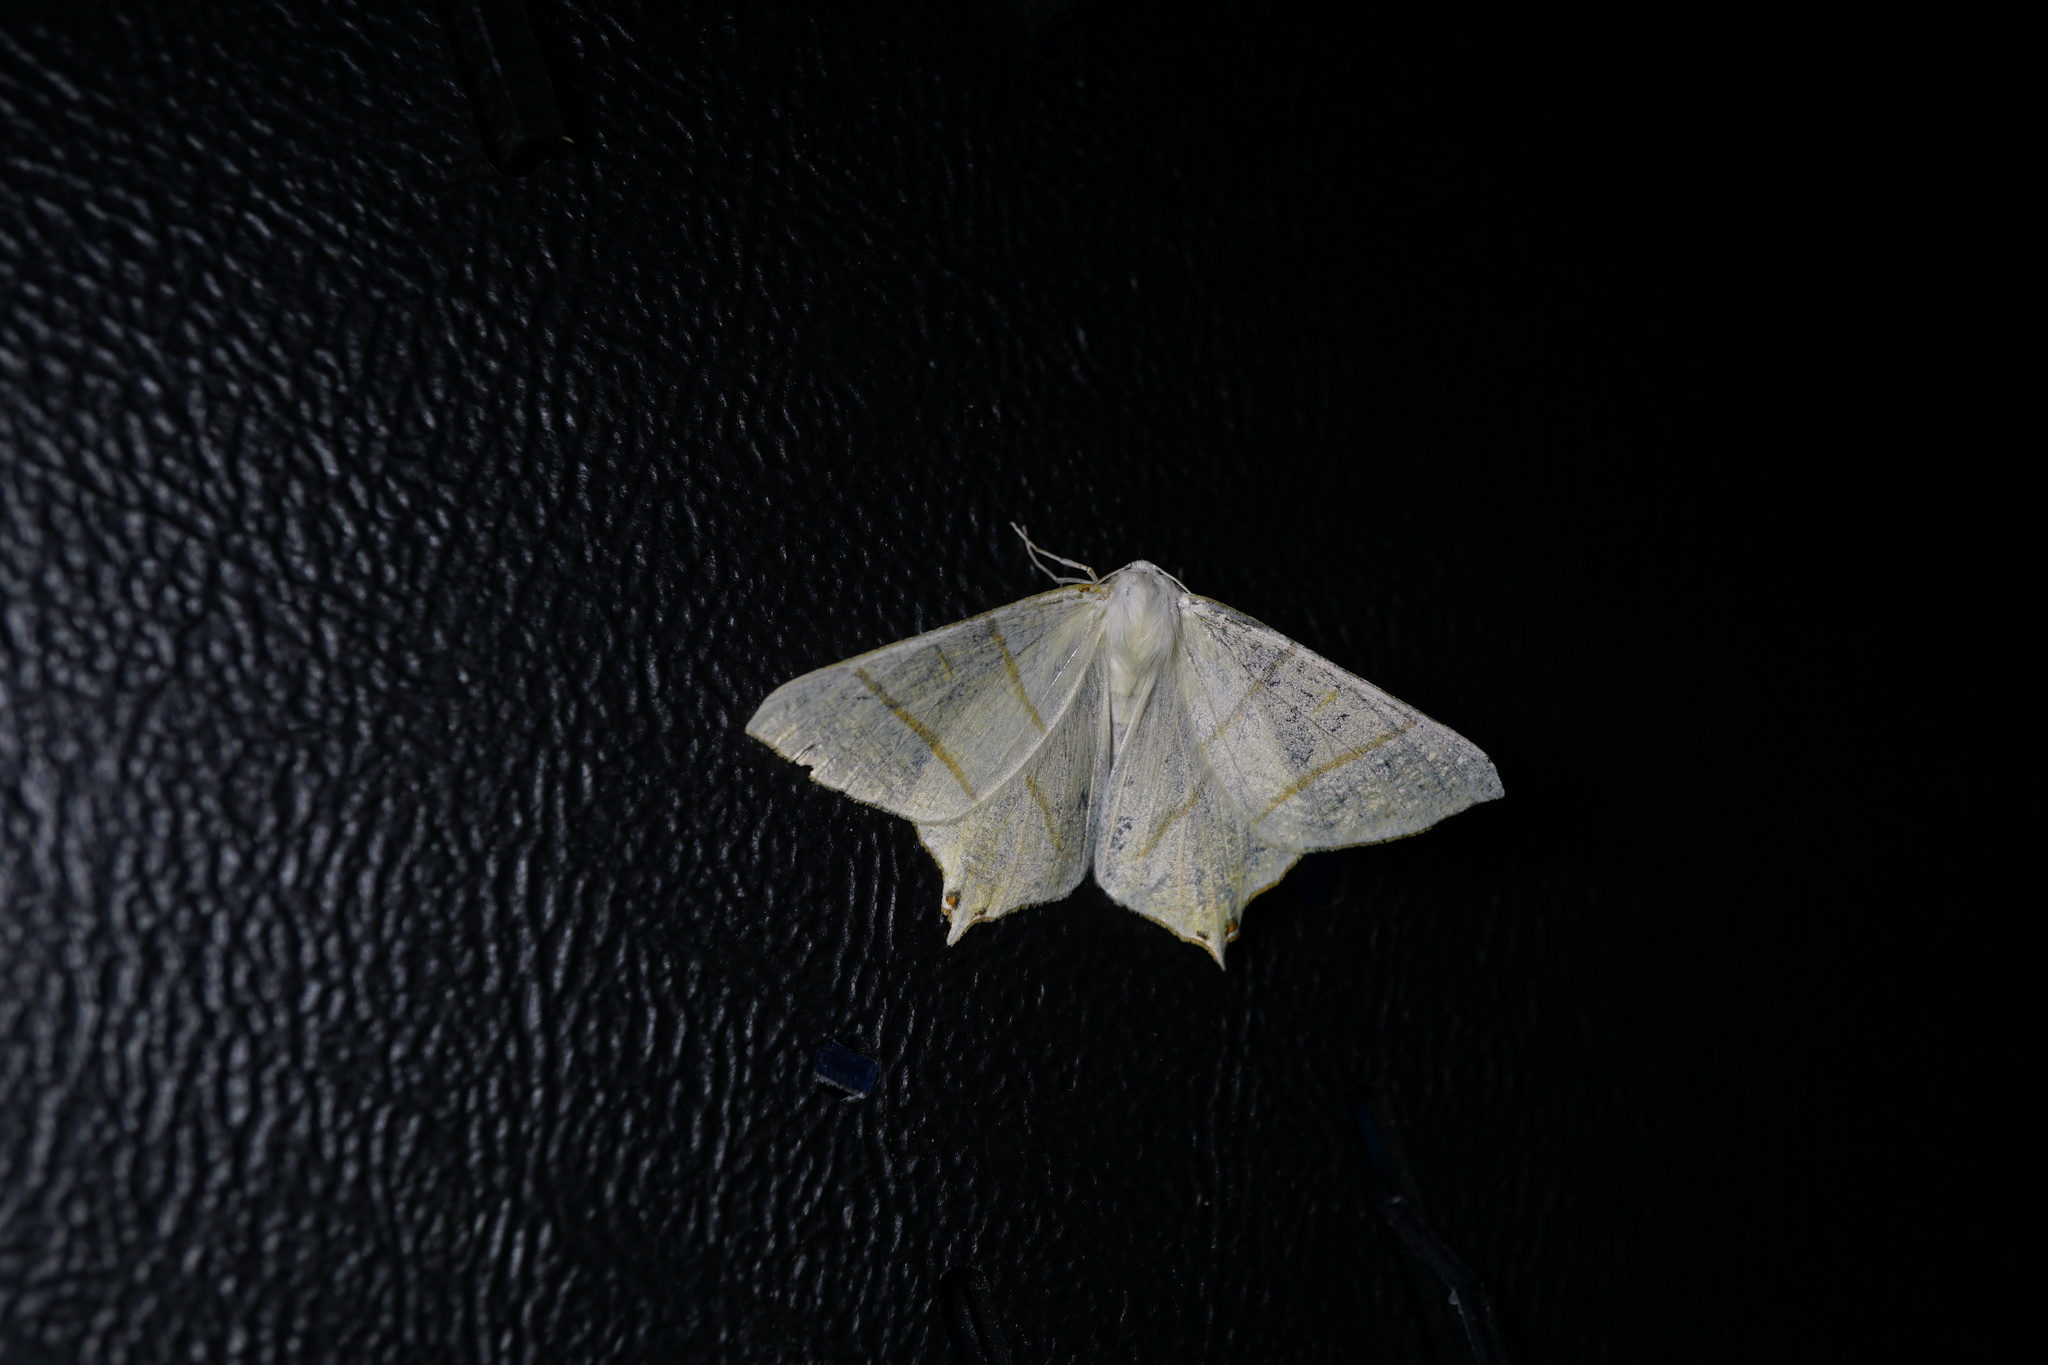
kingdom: Animalia
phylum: Arthropoda
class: Insecta
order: Lepidoptera
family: Geometridae
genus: Ourapteryx
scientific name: Ourapteryx sambucaria
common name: Swallow-tailed moth
